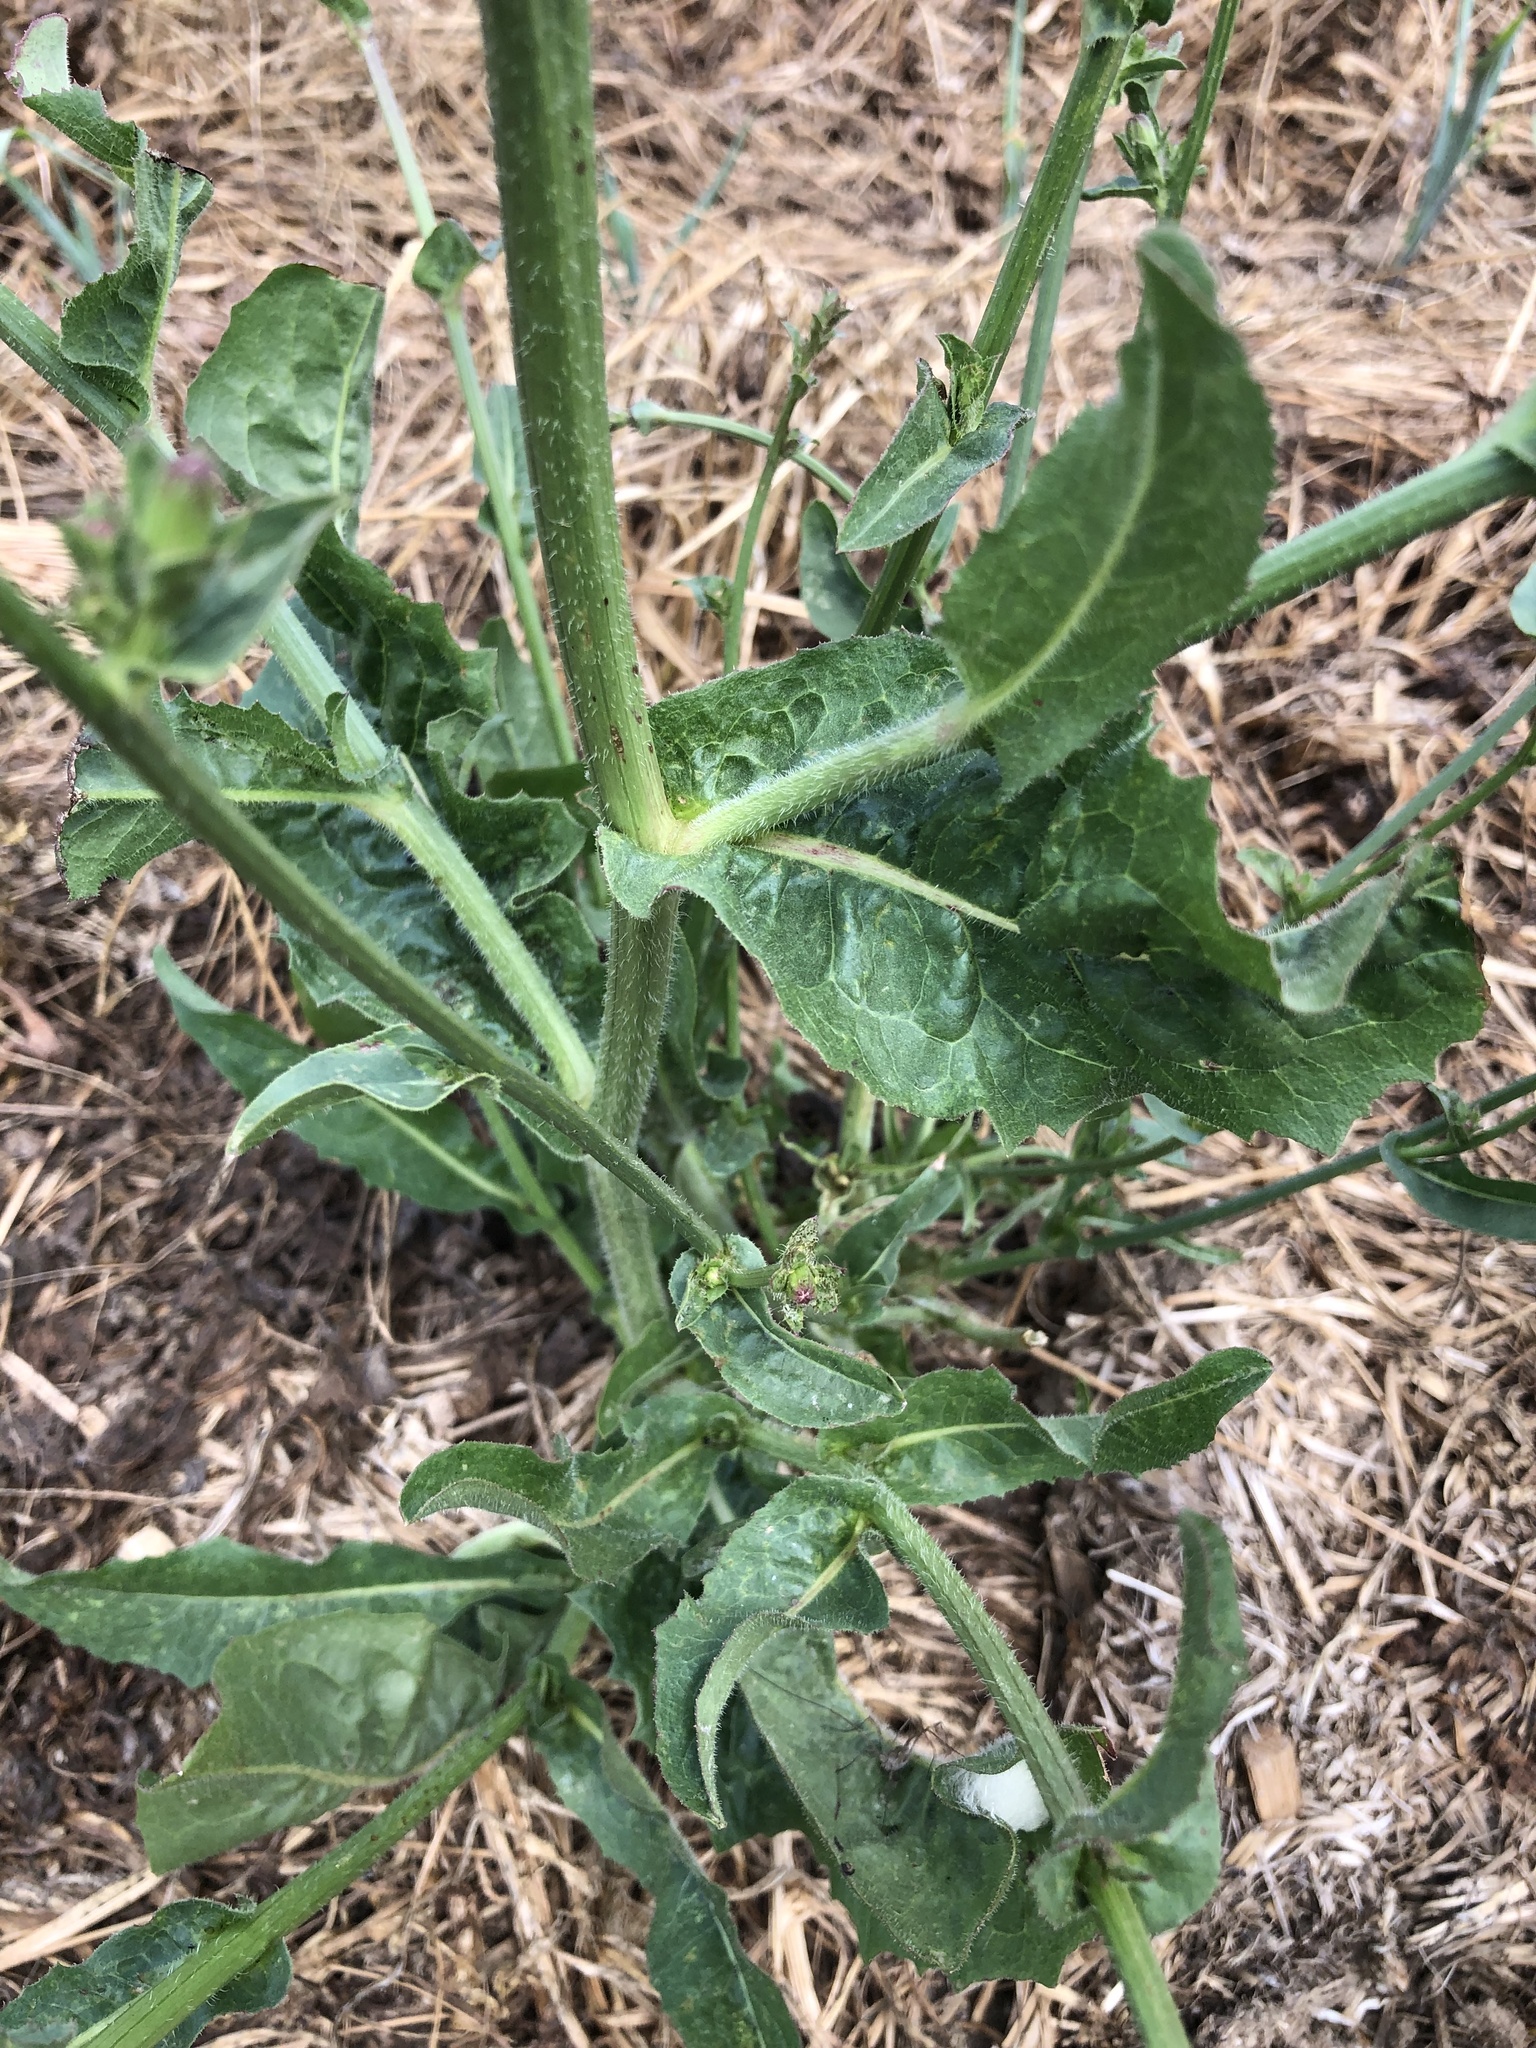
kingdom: Plantae
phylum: Tracheophyta
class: Magnoliopsida
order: Asterales
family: Asteraceae
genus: Cichorium
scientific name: Cichorium intybus
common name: Chicory
